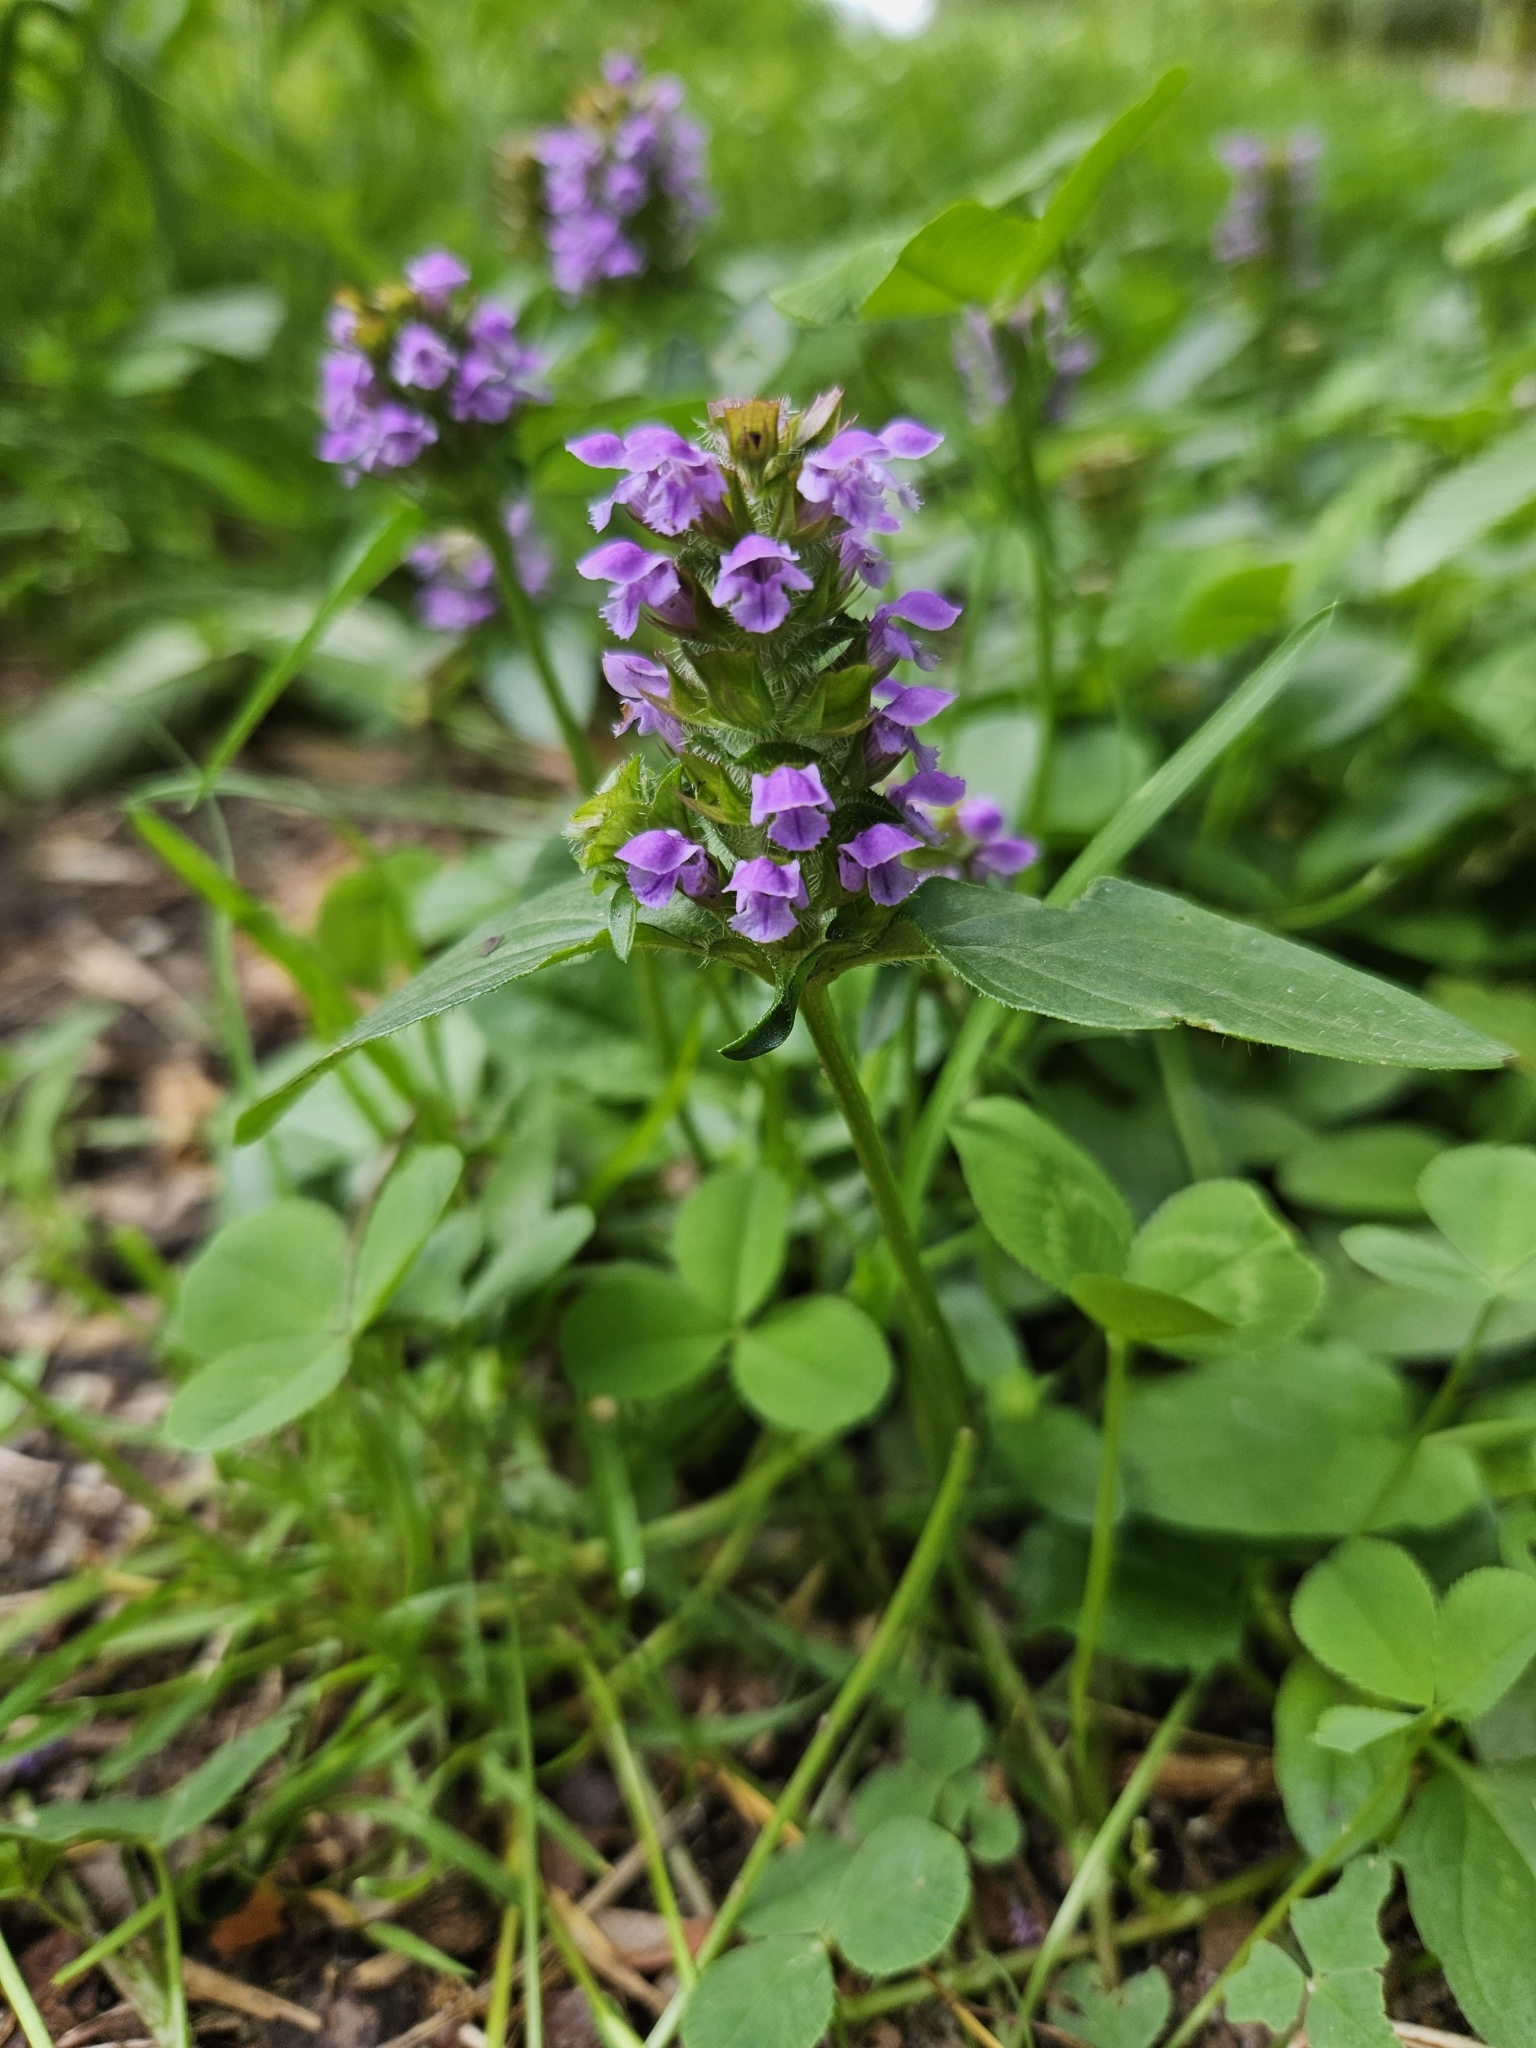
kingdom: Plantae
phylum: Tracheophyta
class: Magnoliopsida
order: Lamiales
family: Lamiaceae
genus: Prunella
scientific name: Prunella vulgaris
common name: Heal-all
